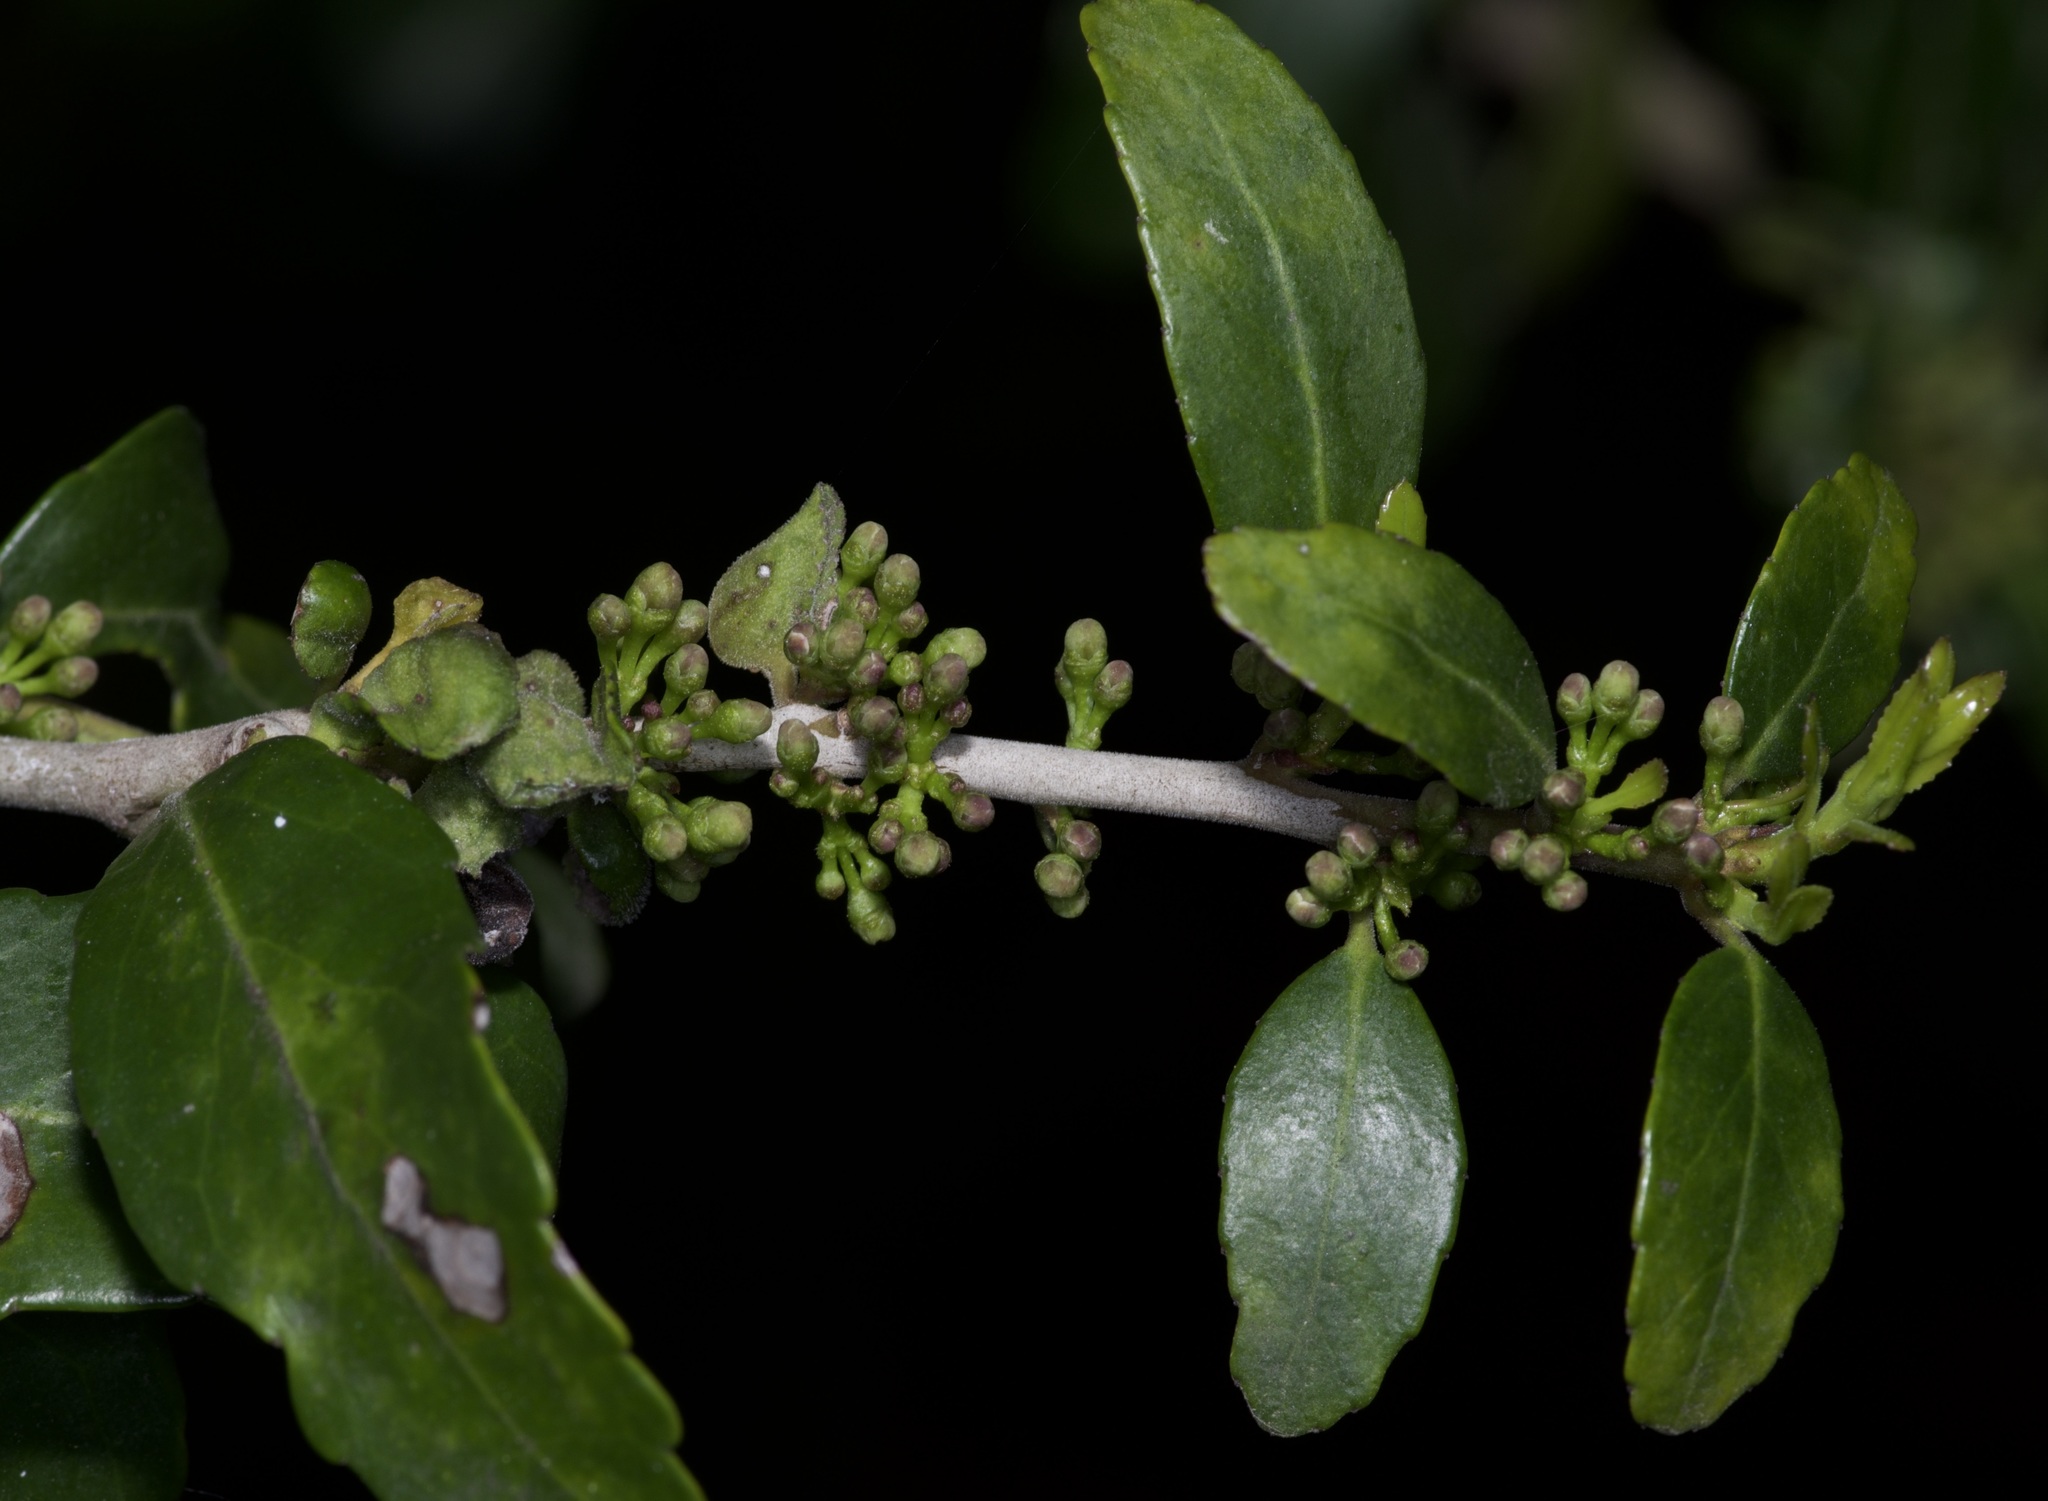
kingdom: Plantae
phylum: Tracheophyta
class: Magnoliopsida
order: Aquifoliales
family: Aquifoliaceae
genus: Ilex
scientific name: Ilex vomitoria
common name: Yaupon holly
